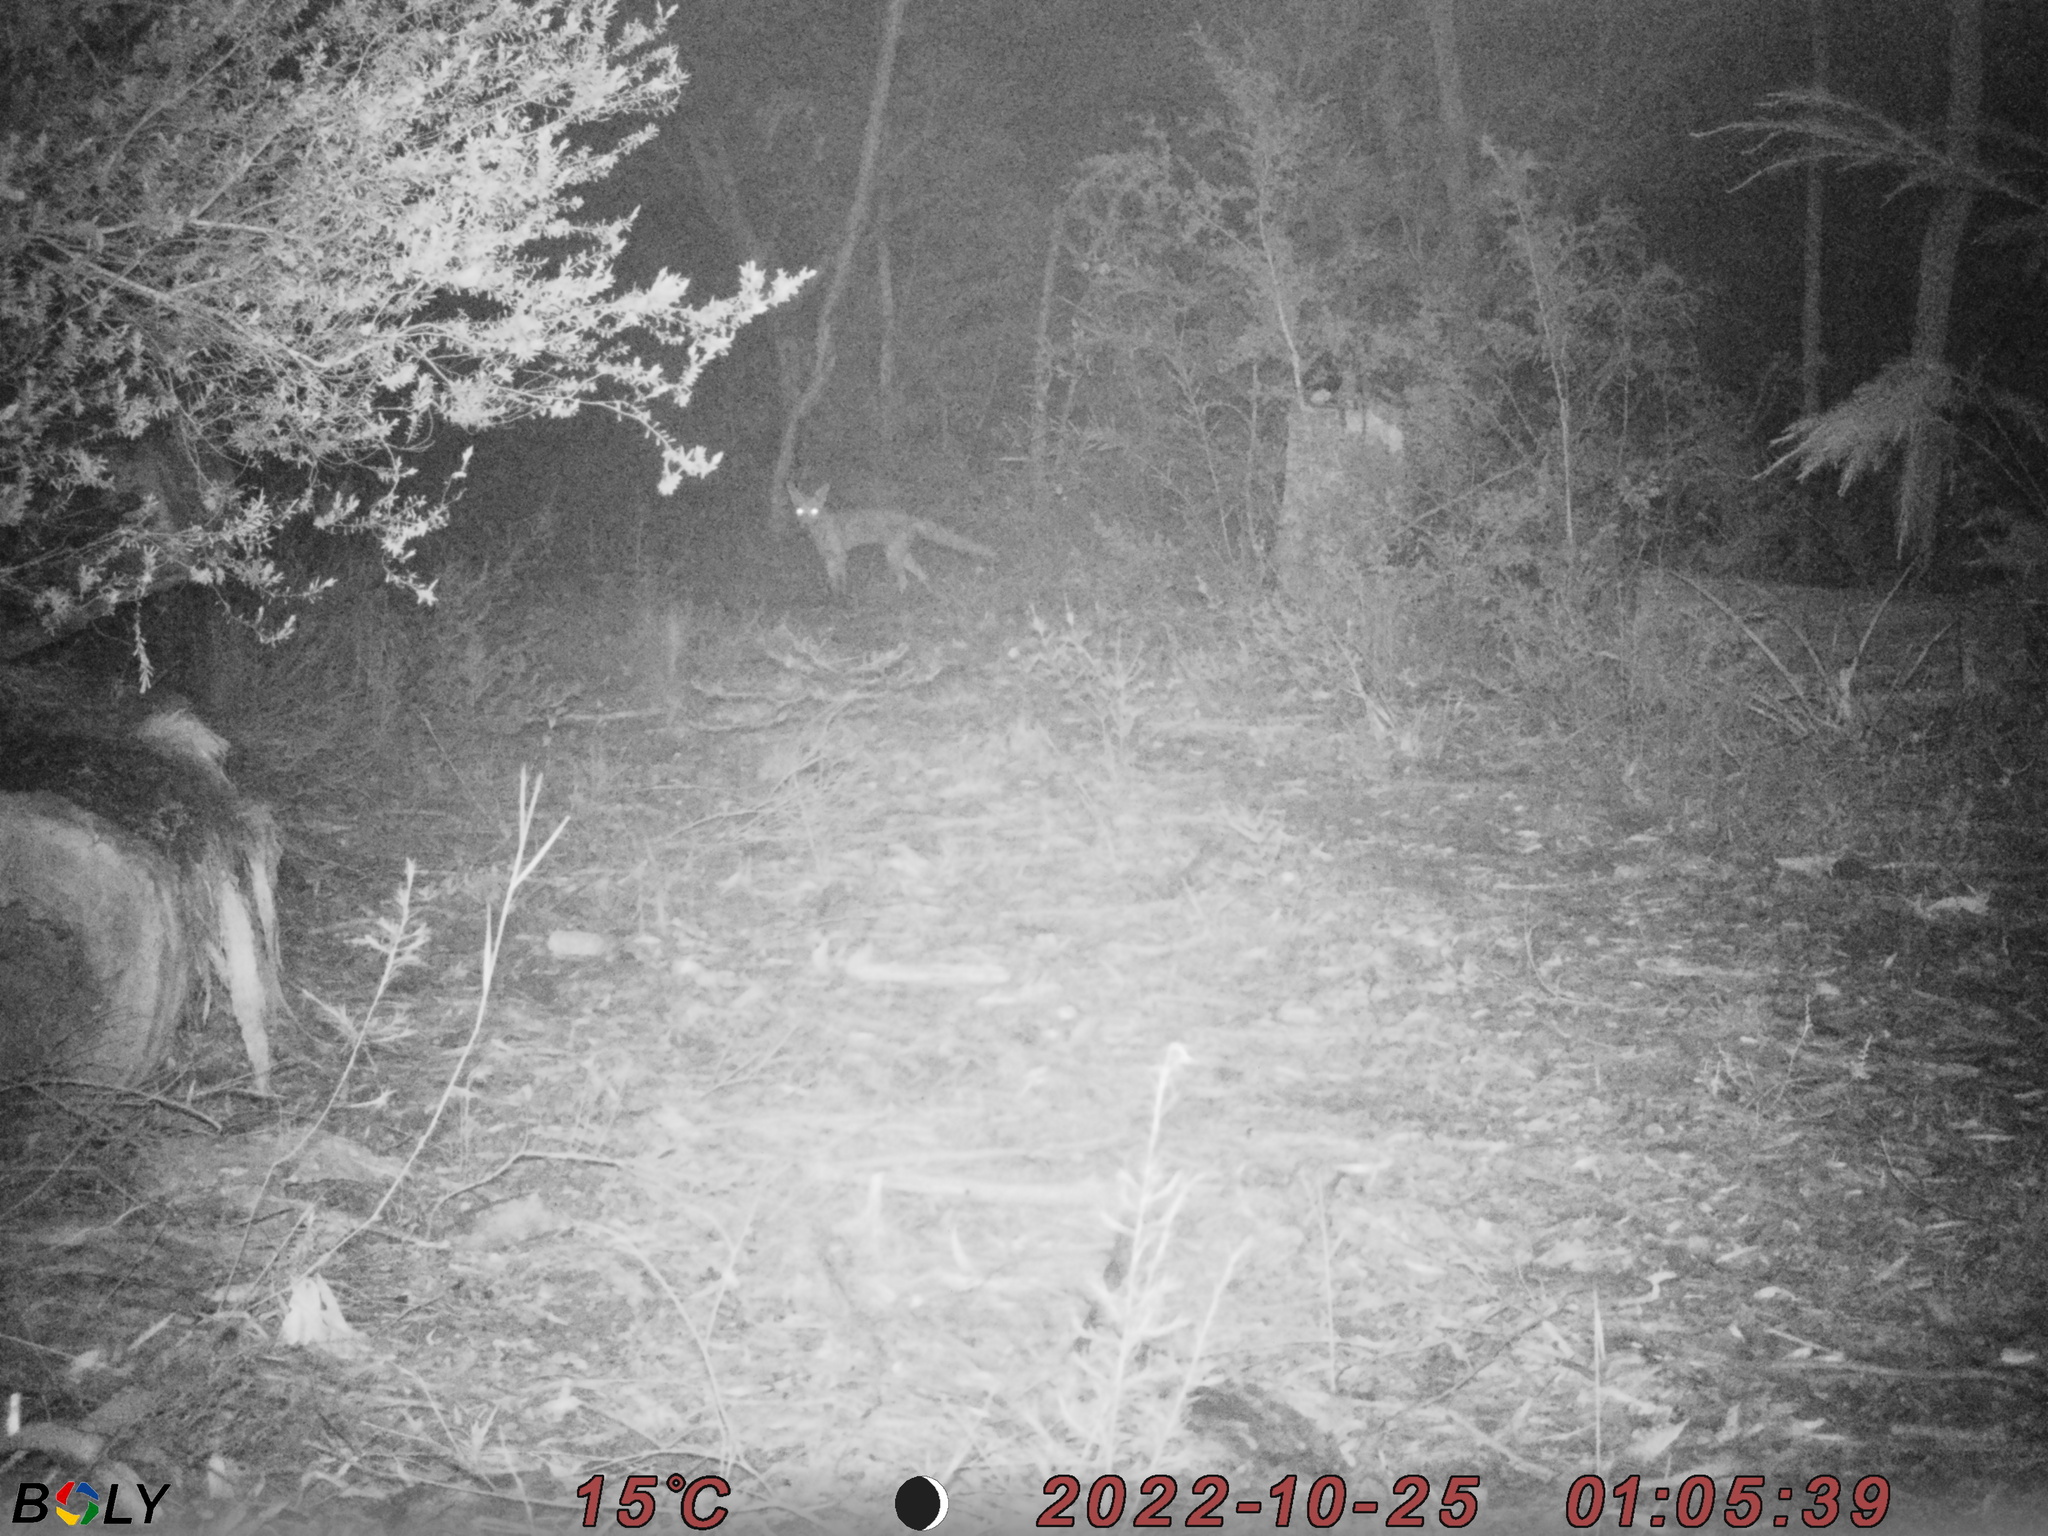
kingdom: Animalia
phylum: Chordata
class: Mammalia
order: Carnivora
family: Canidae
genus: Vulpes
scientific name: Vulpes vulpes
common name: Red fox
